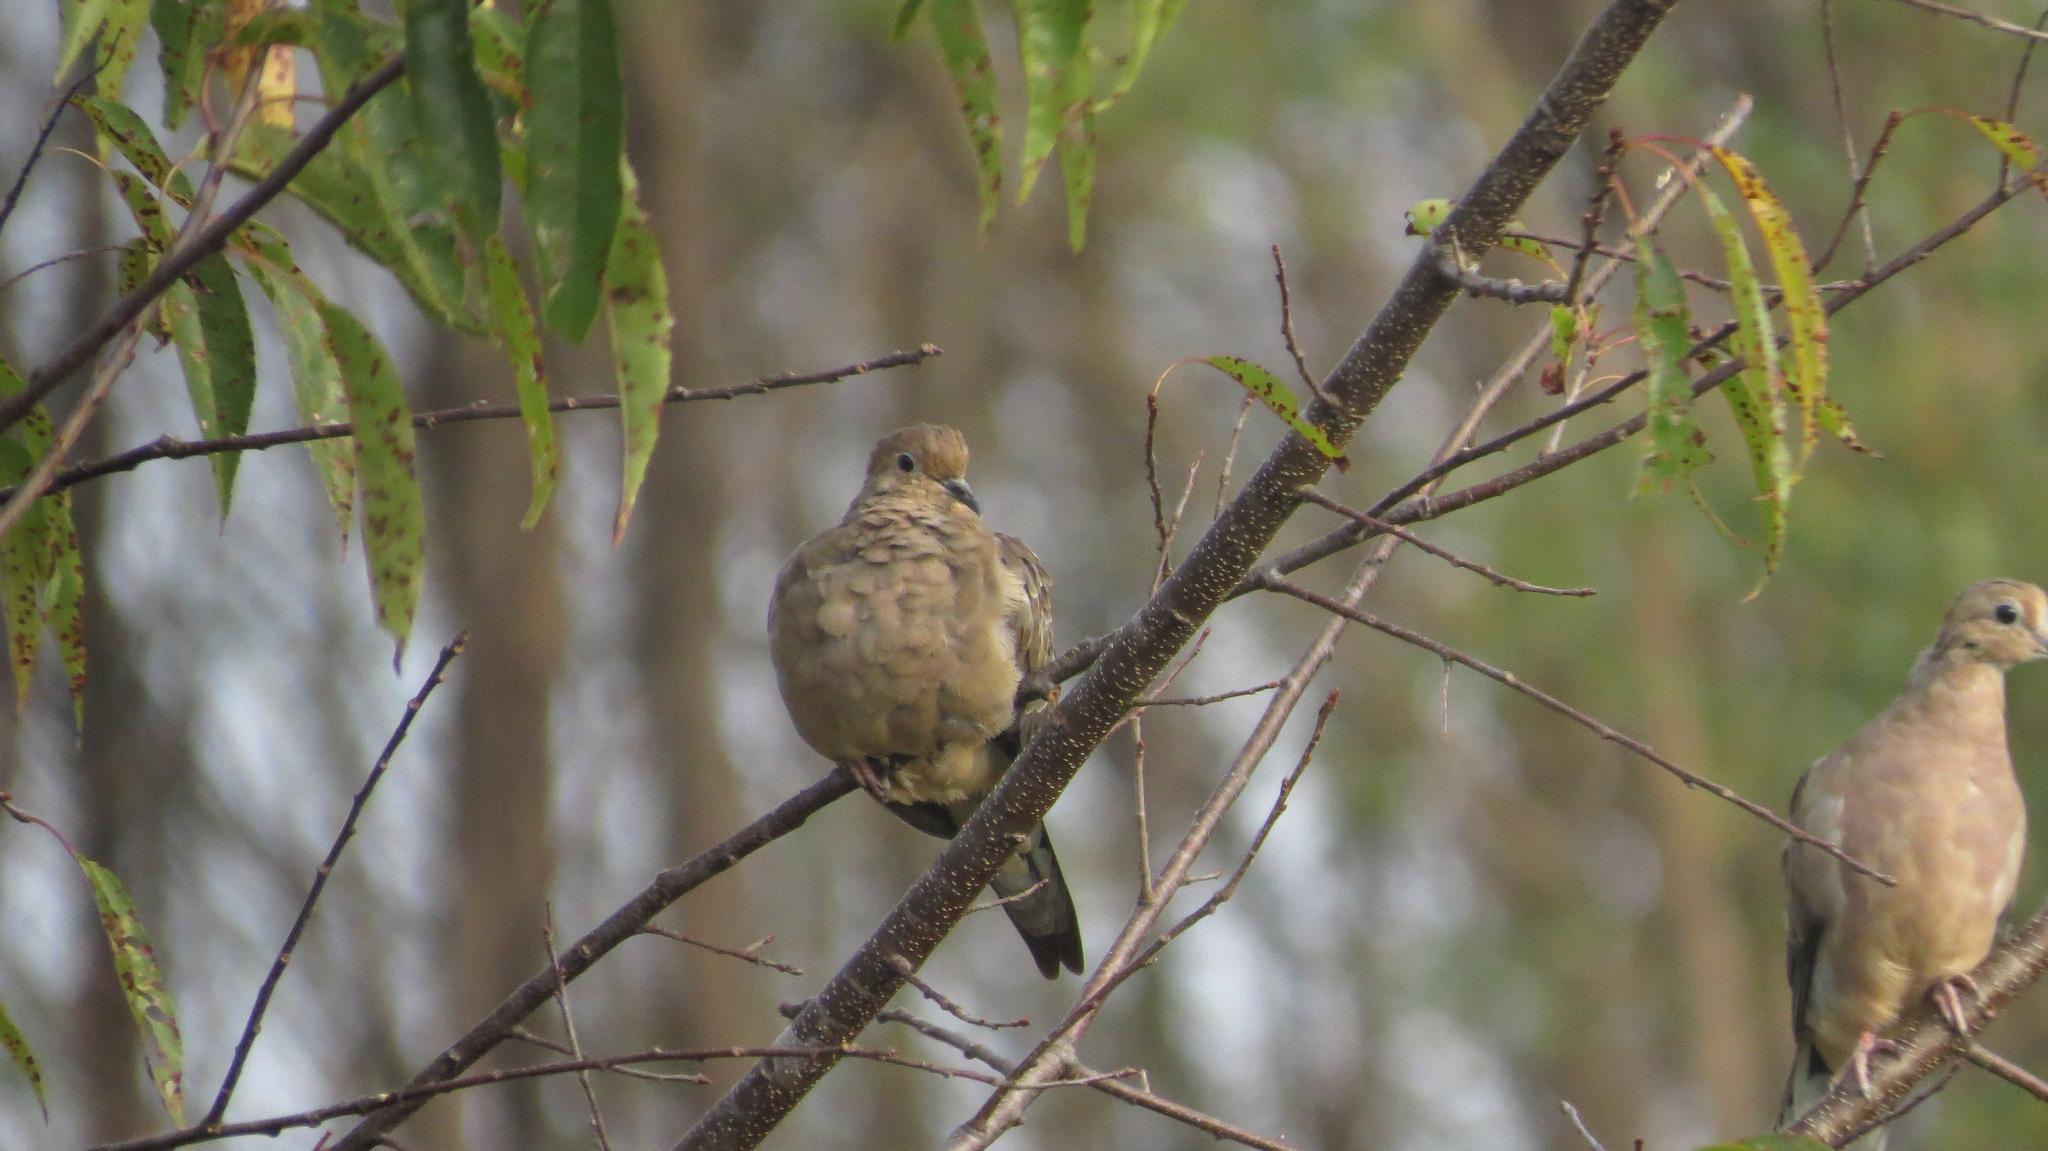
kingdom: Animalia
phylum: Chordata
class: Aves
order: Columbiformes
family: Columbidae
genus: Zenaida
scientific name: Zenaida macroura
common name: Mourning dove
